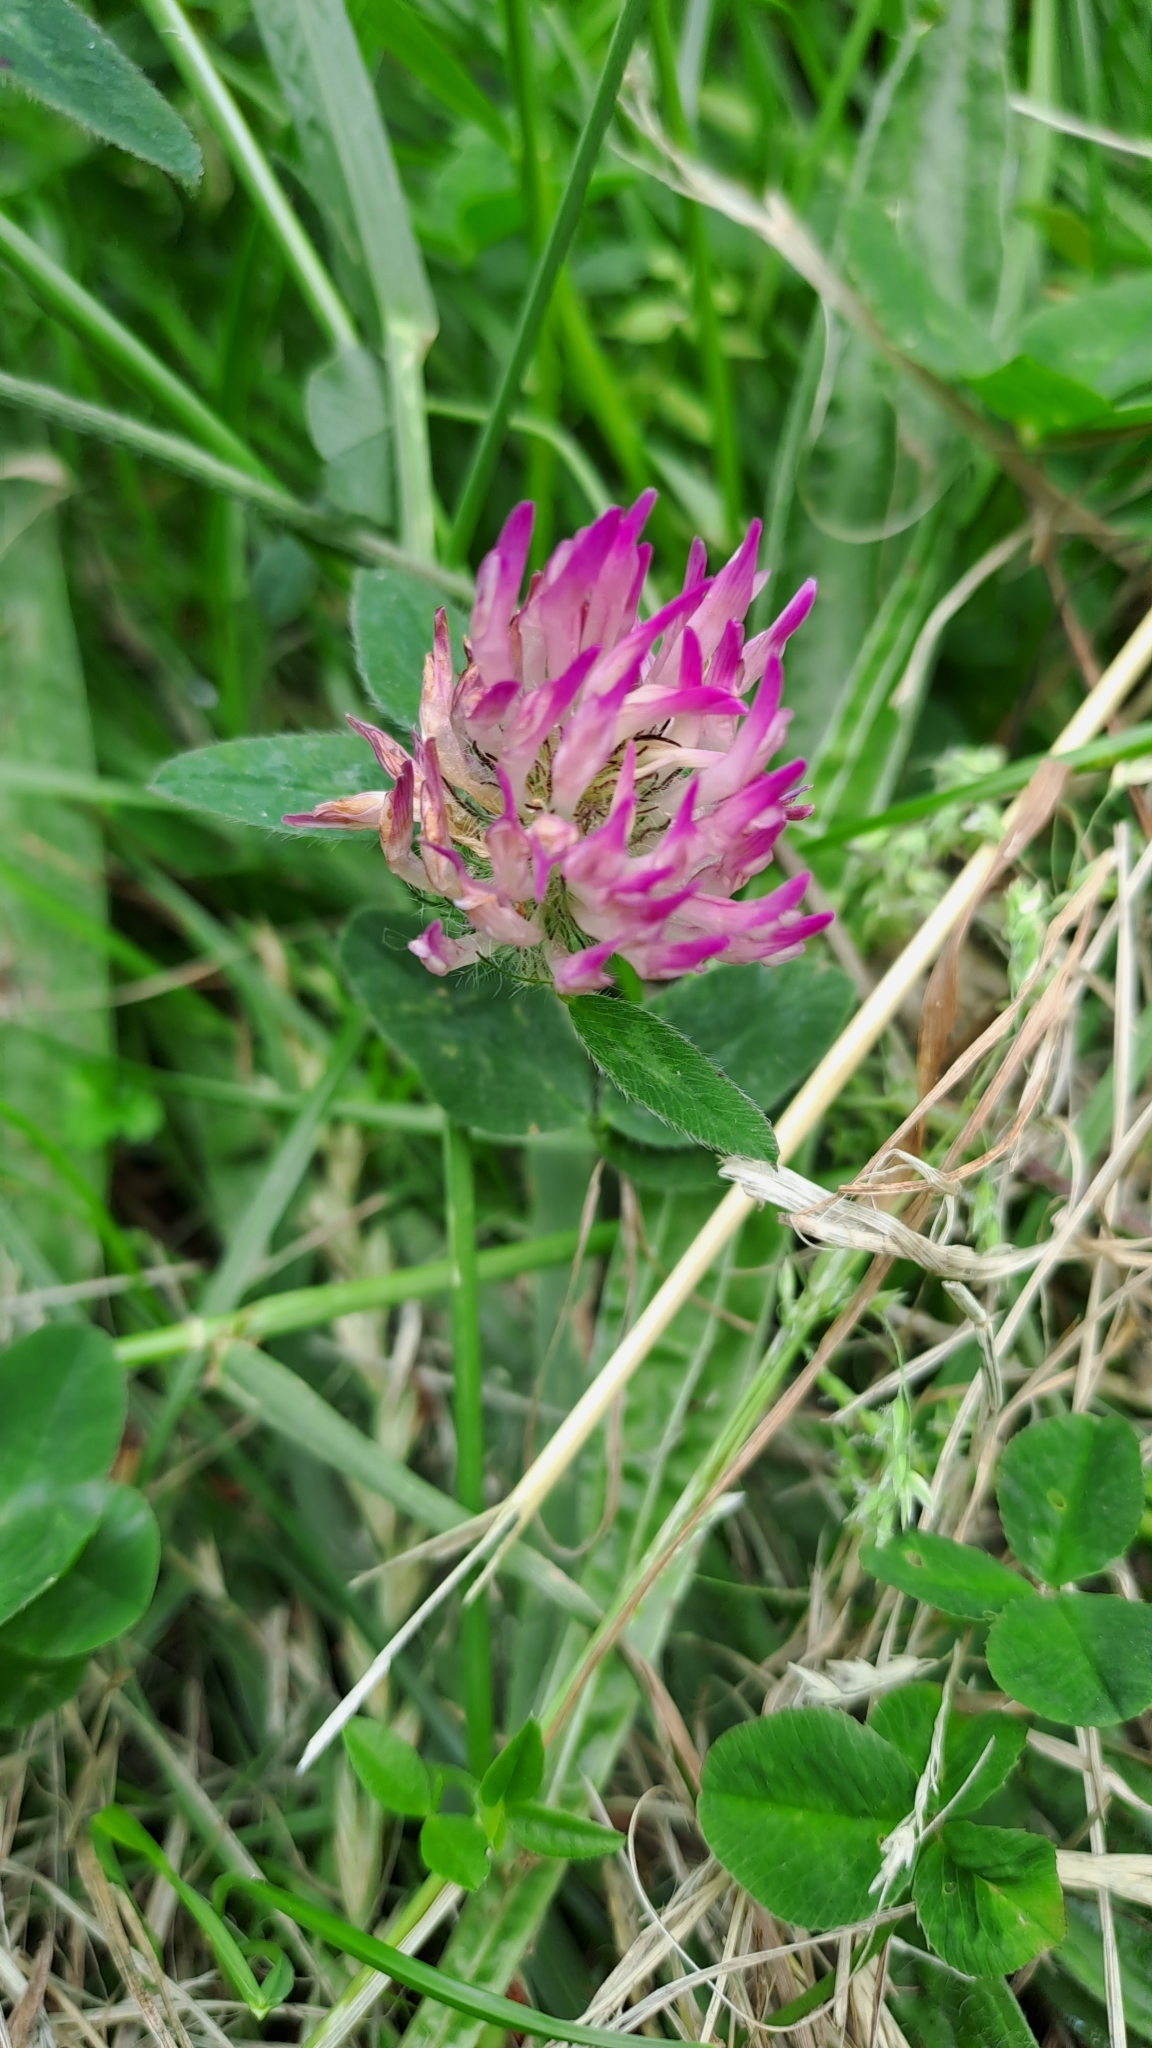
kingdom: Plantae
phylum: Tracheophyta
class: Magnoliopsida
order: Fabales
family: Fabaceae
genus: Trifolium
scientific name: Trifolium pratense
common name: Red clover
